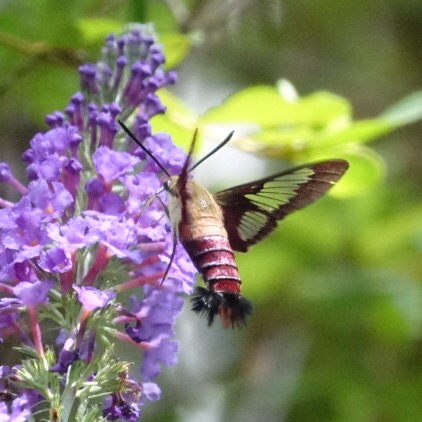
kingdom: Animalia
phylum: Arthropoda
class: Insecta
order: Lepidoptera
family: Sphingidae
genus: Hemaris
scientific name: Hemaris thysbe
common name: Common clear-wing
